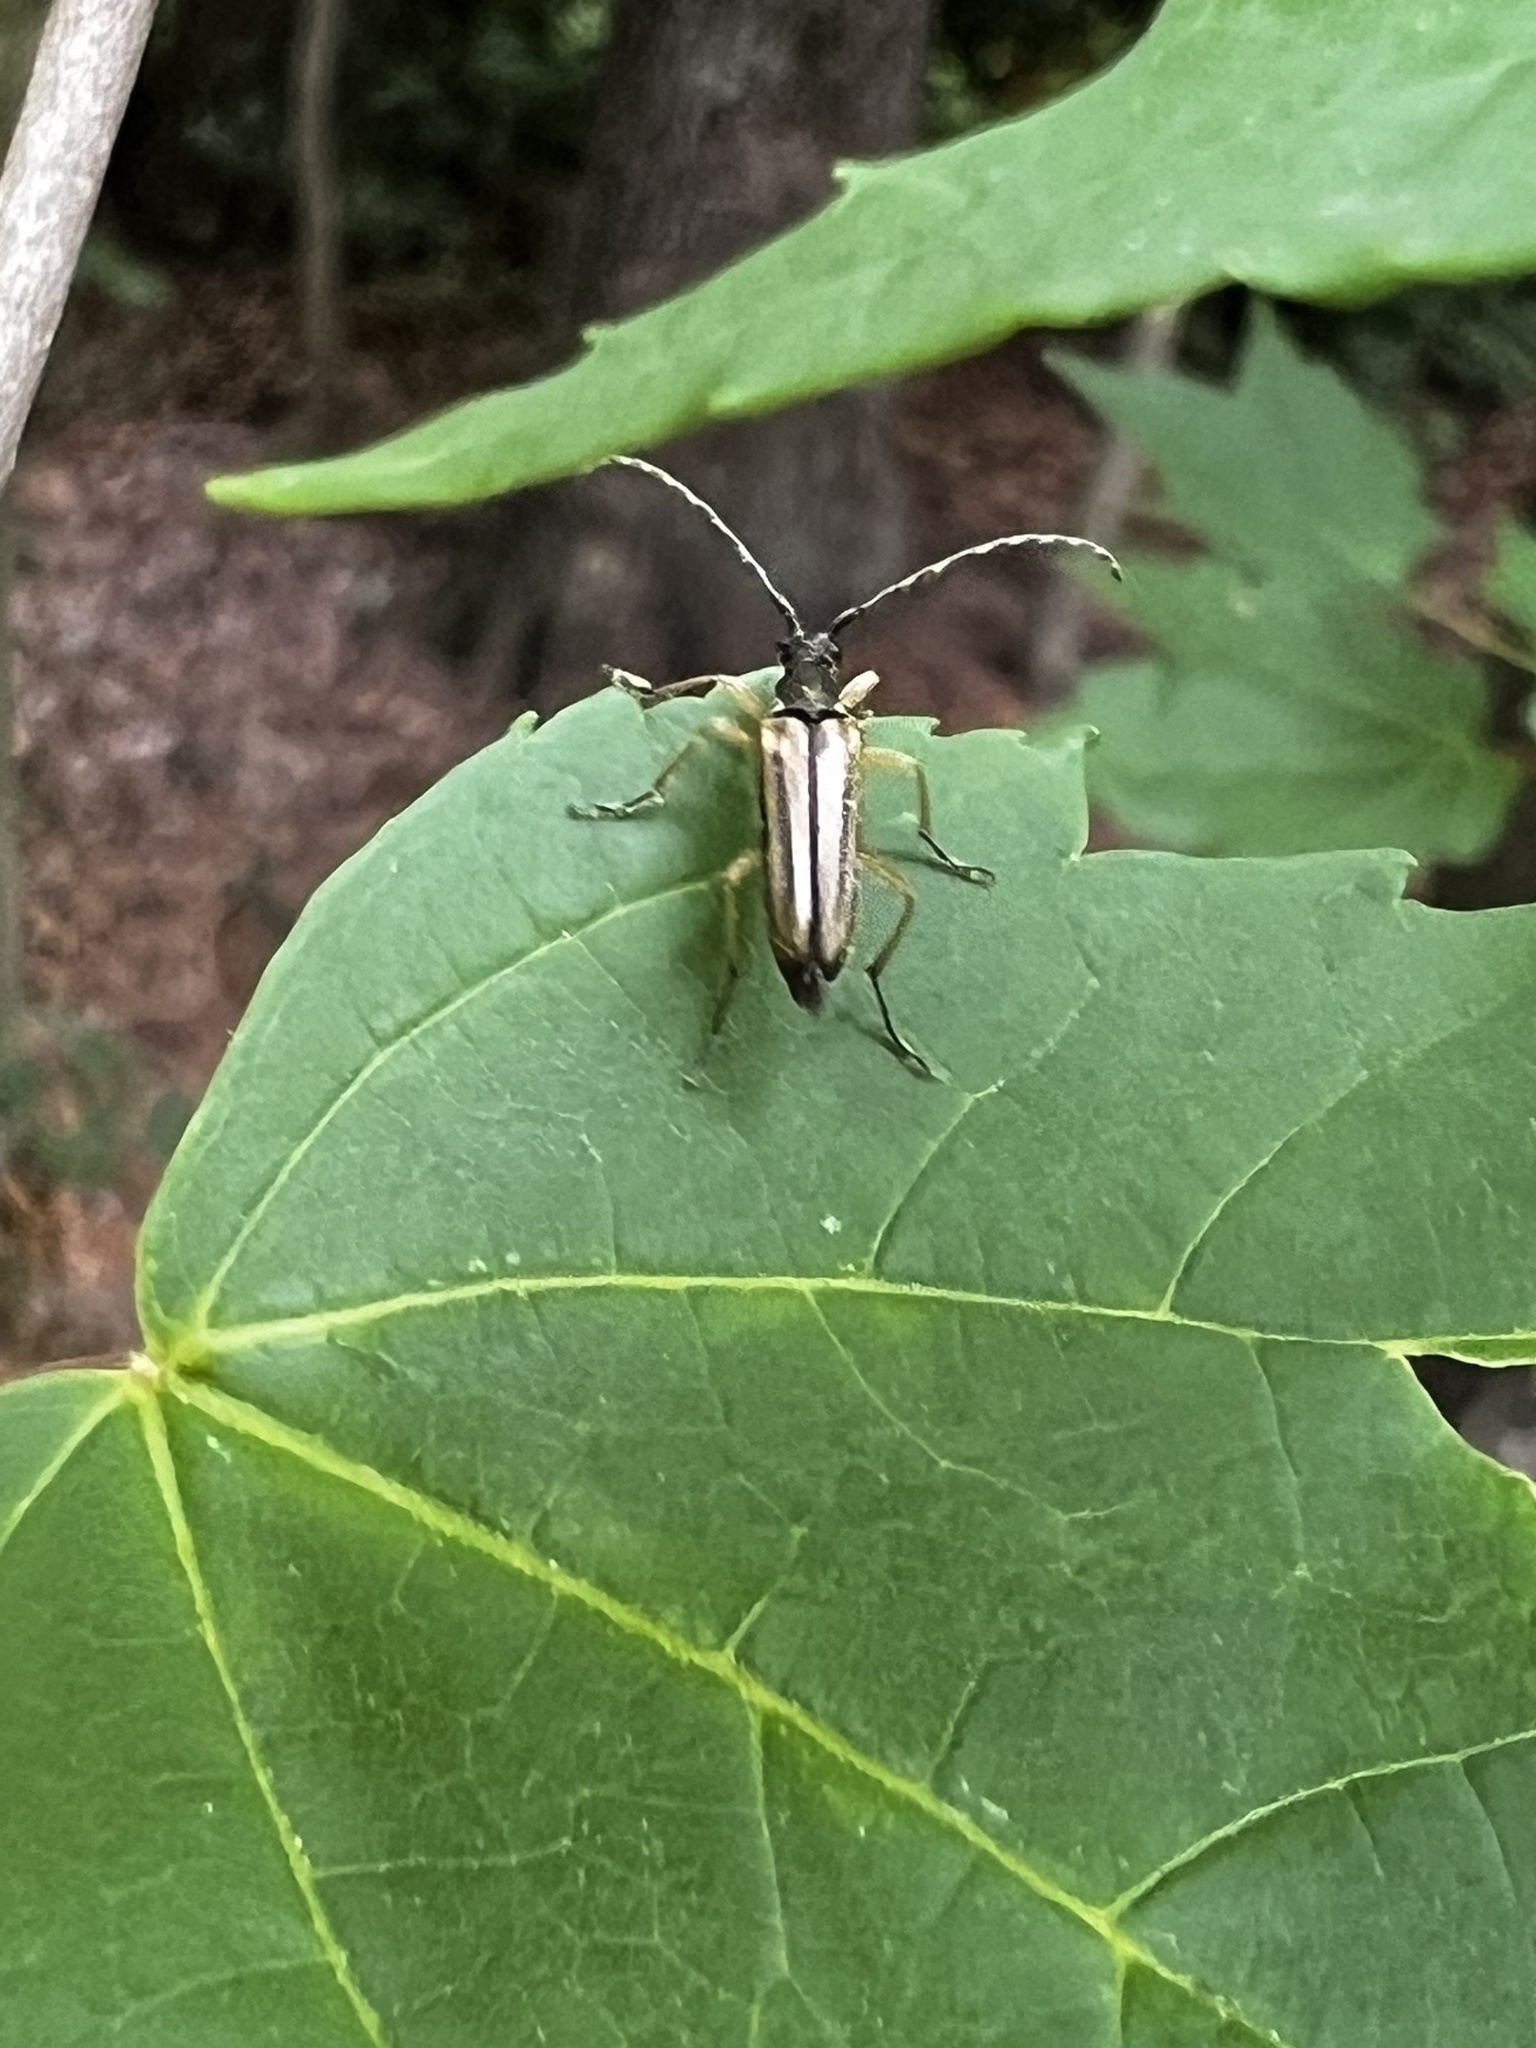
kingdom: Animalia
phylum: Arthropoda
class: Insecta
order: Coleoptera
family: Cerambycidae
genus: Analeptura
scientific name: Analeptura lineola
